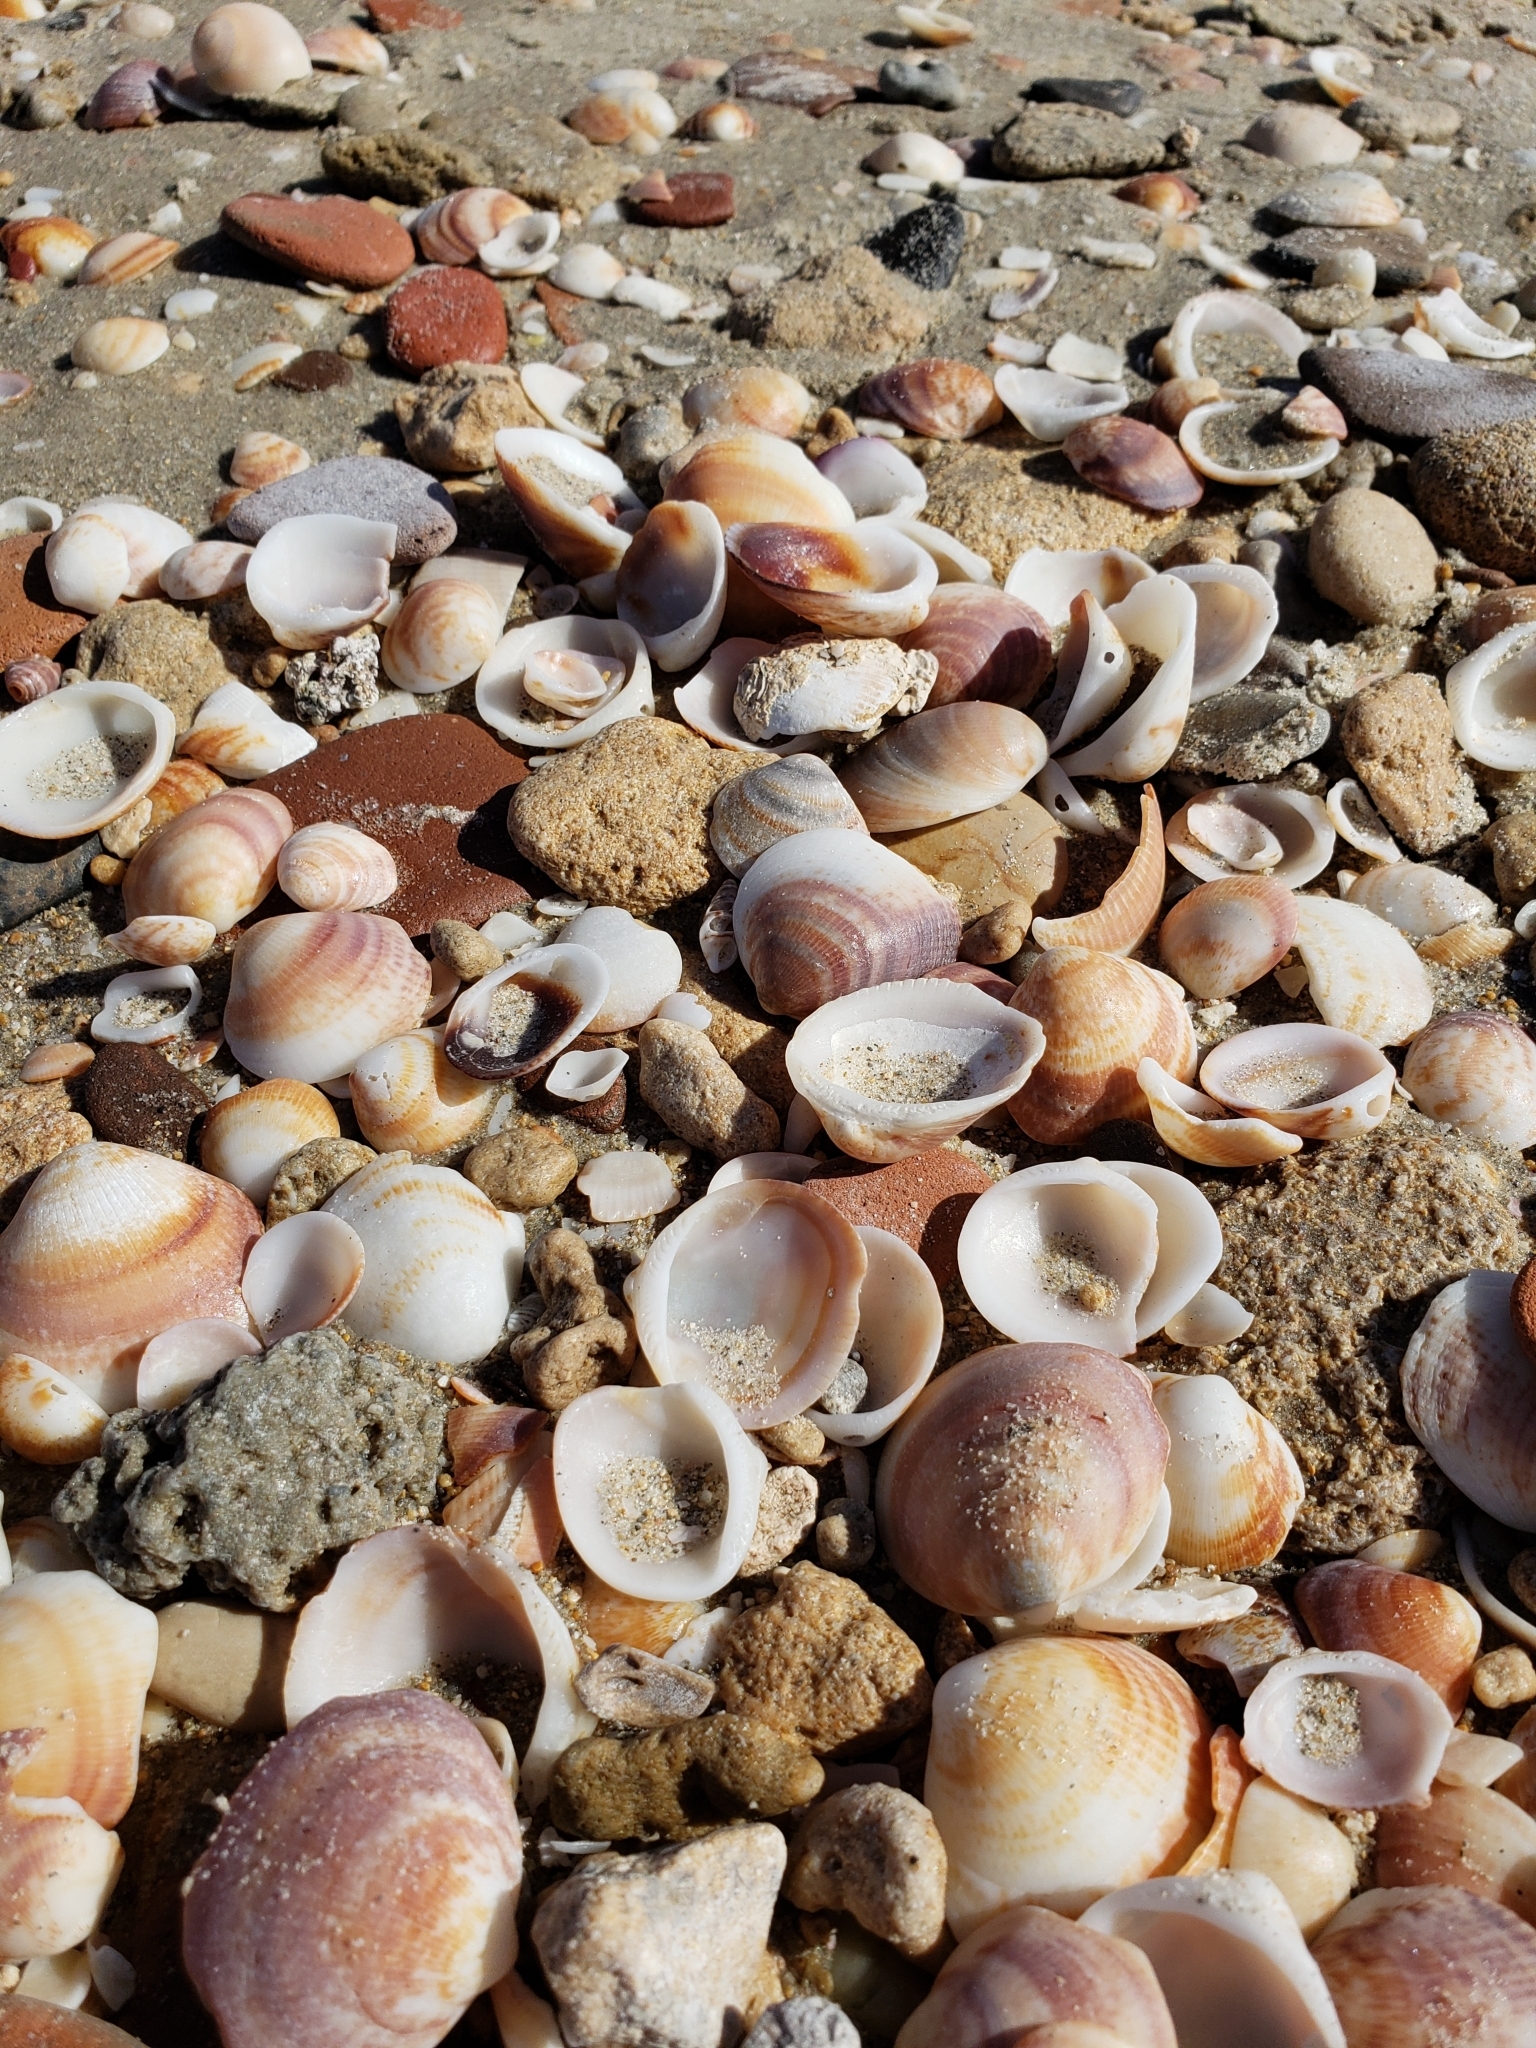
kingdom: Animalia
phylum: Mollusca
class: Bivalvia
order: Arcida
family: Glycymerididae
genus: Glycymeris
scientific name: Glycymeris nummaria
